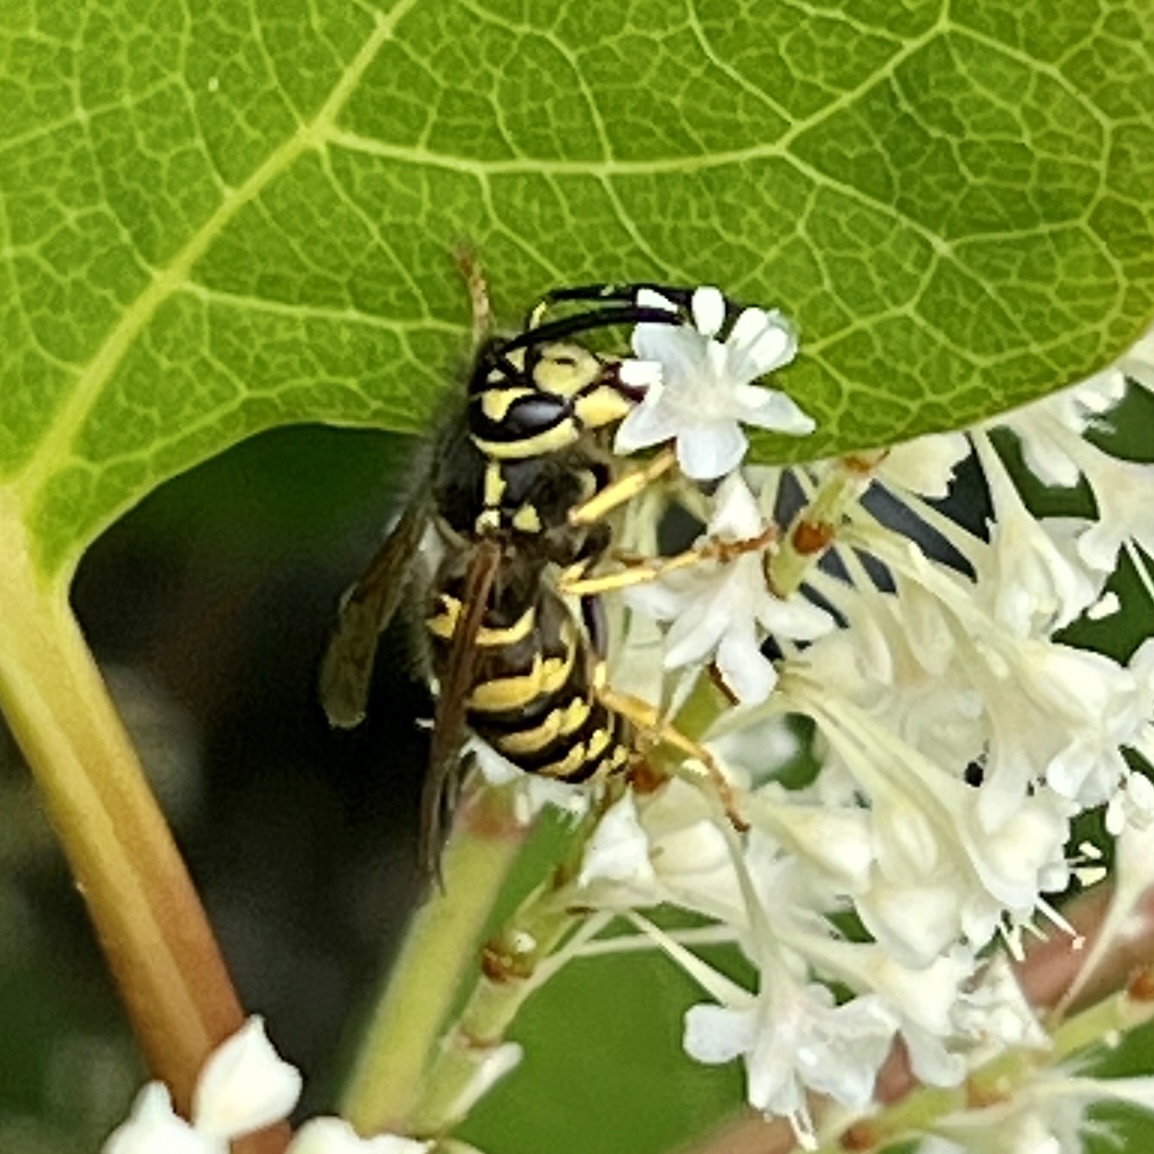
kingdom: Animalia
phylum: Arthropoda
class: Insecta
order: Hymenoptera
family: Vespidae
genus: Vespula
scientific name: Vespula pensylvanica
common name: Western yellowjacket
